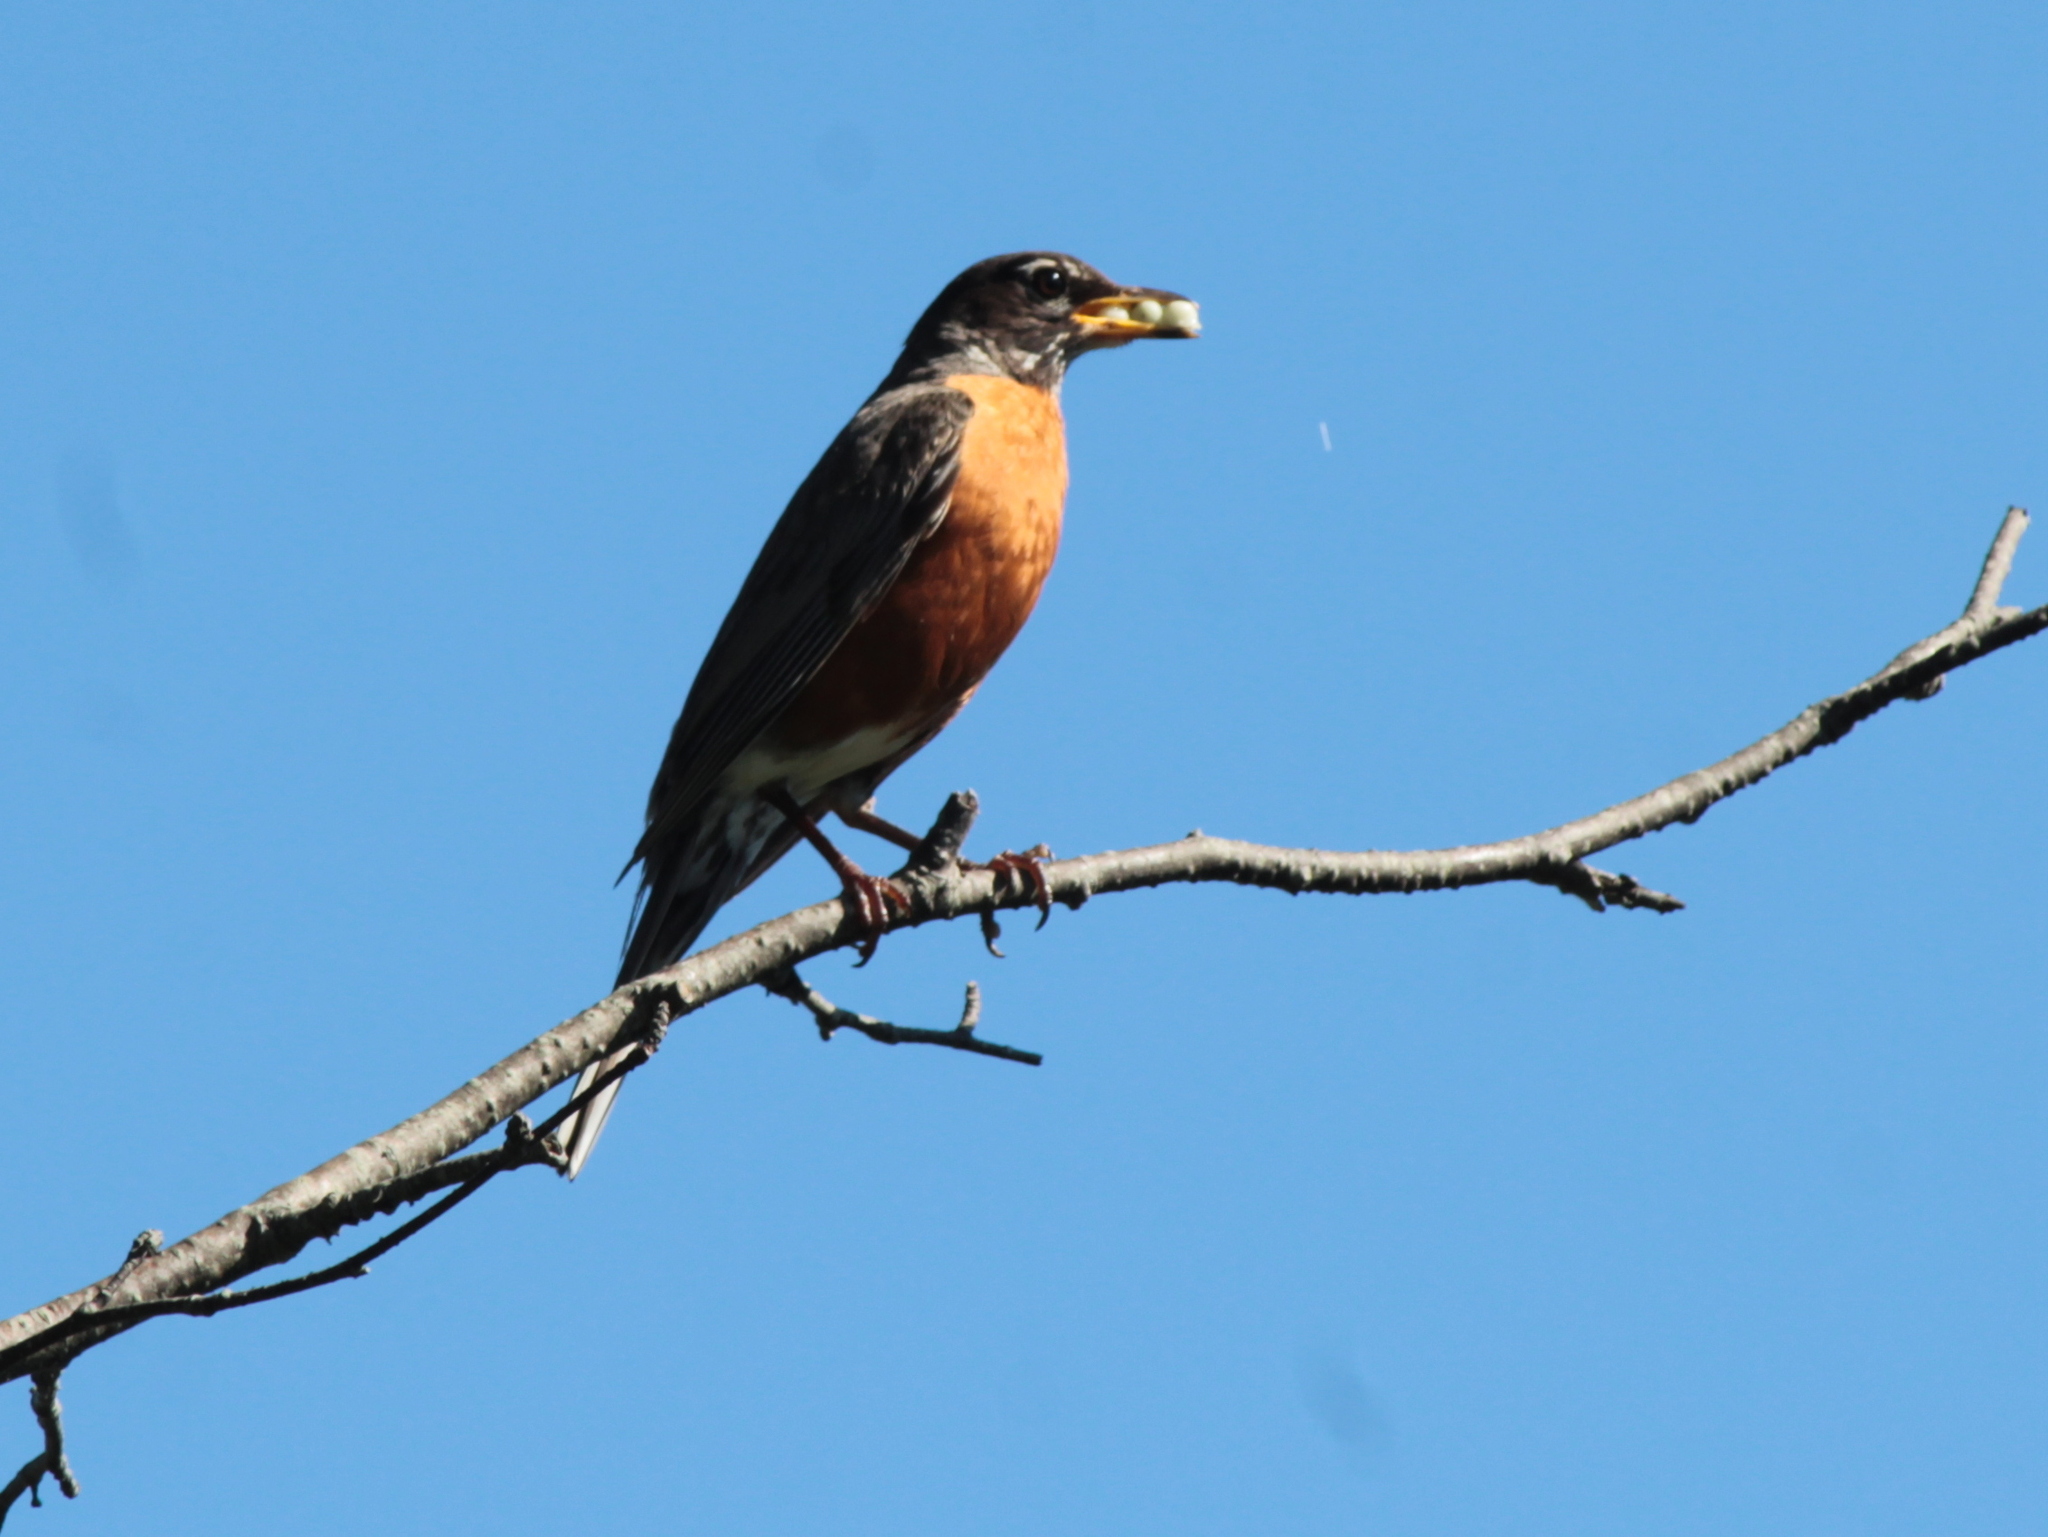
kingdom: Animalia
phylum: Chordata
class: Aves
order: Passeriformes
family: Turdidae
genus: Turdus
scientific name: Turdus migratorius
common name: American robin
